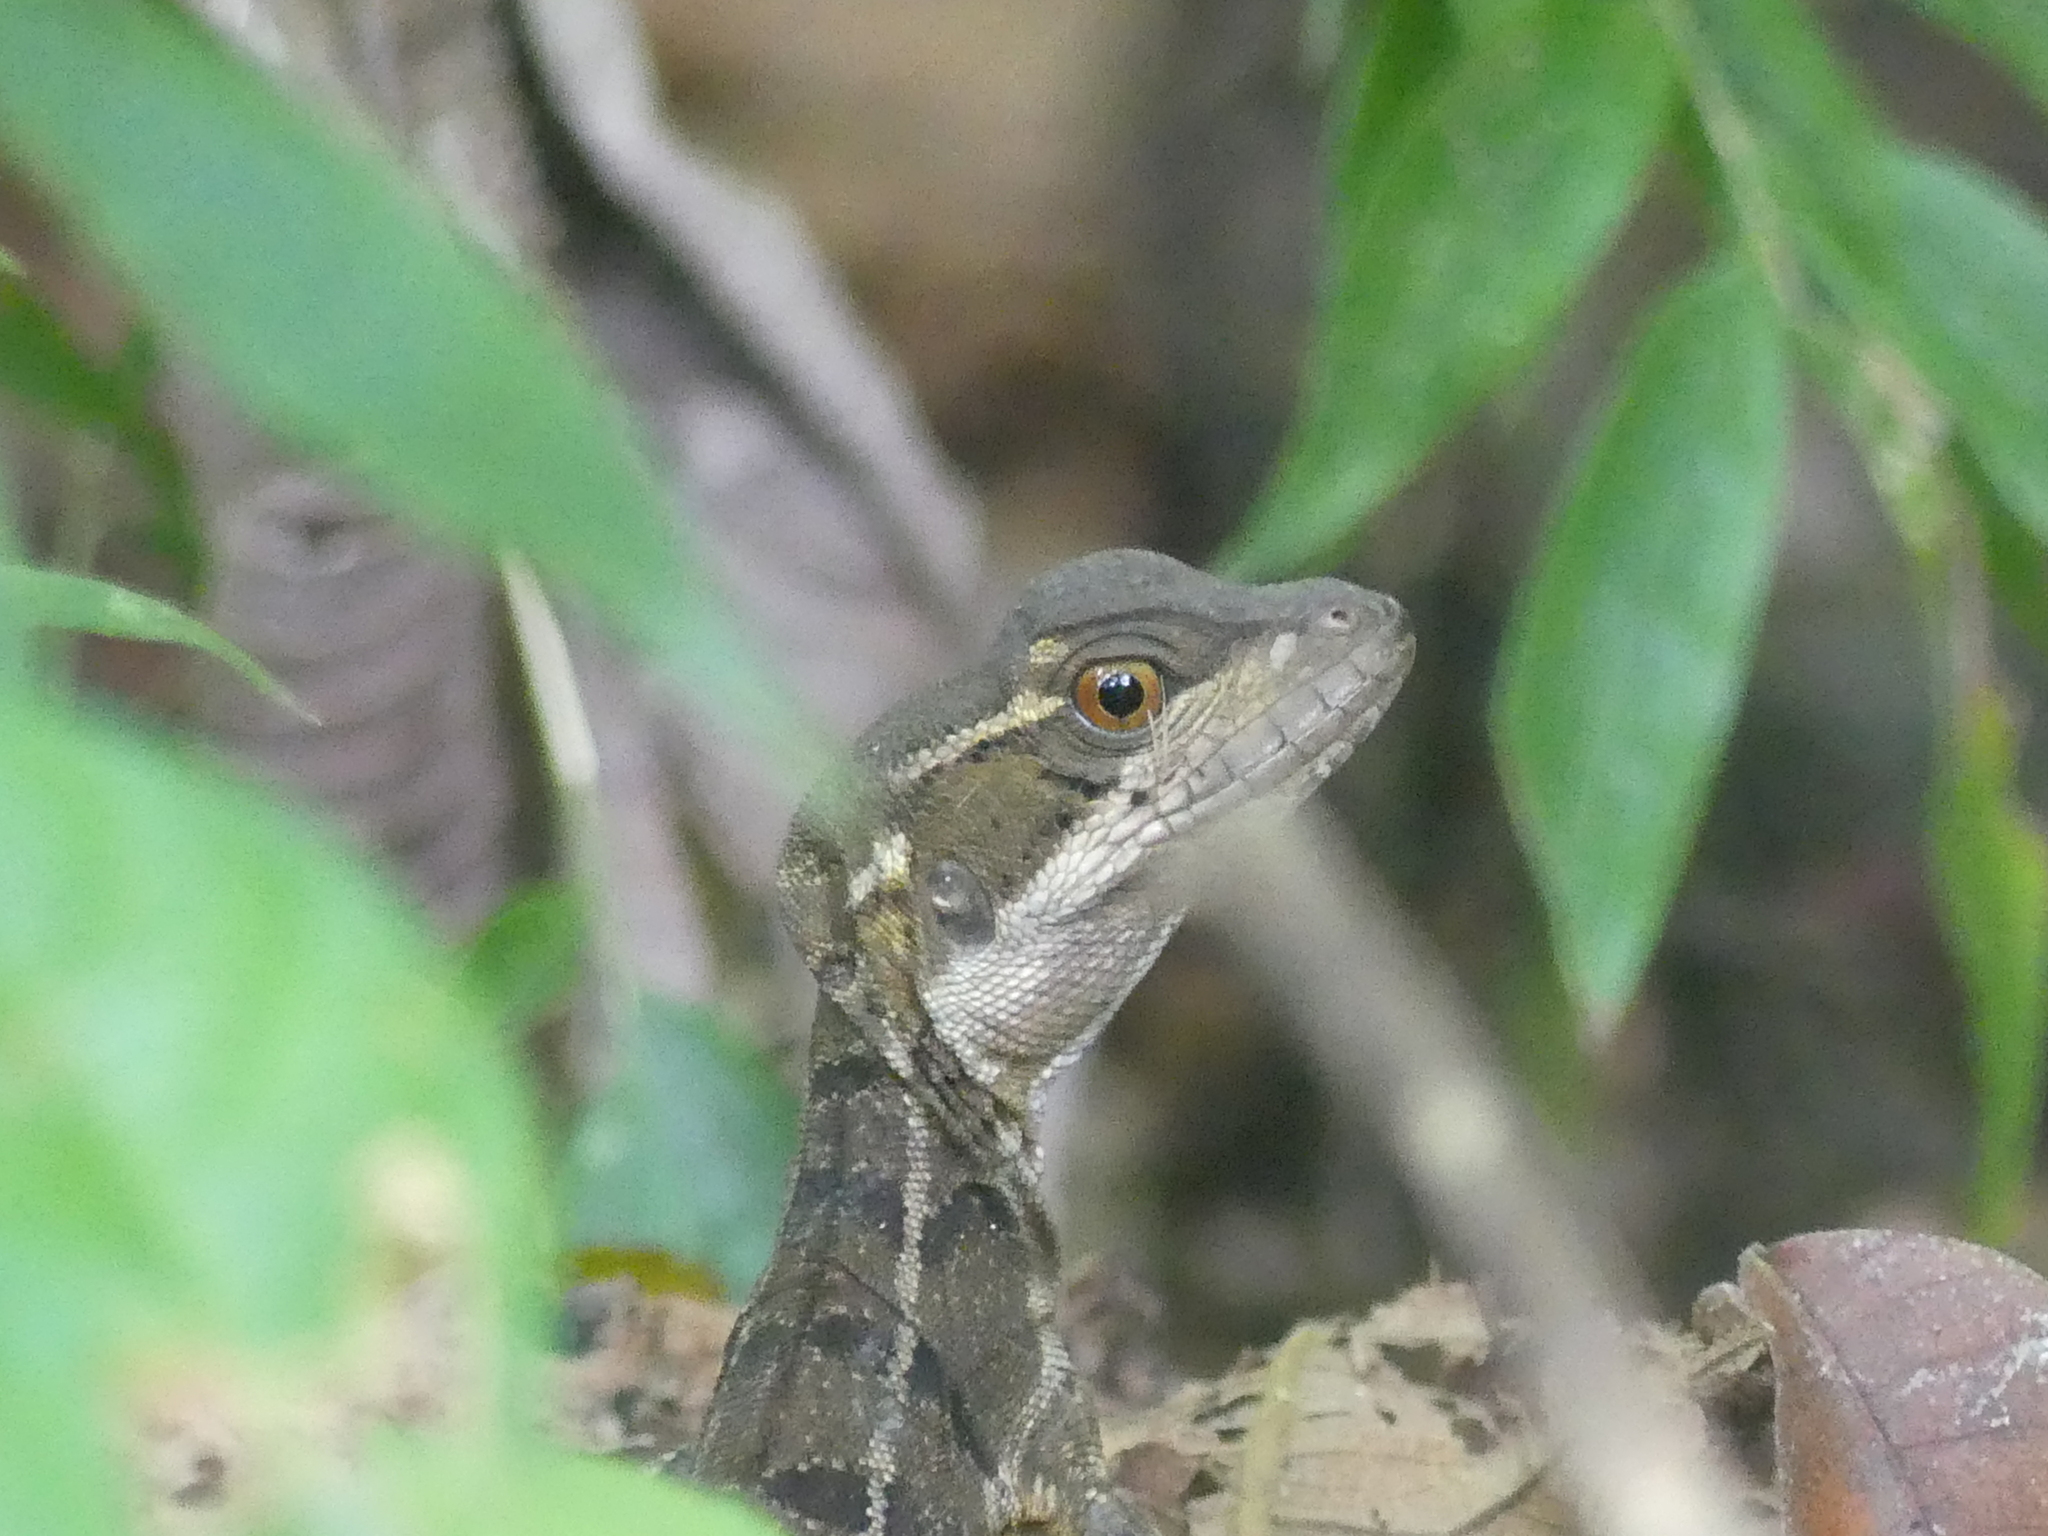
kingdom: Animalia
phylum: Chordata
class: Squamata
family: Corytophanidae
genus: Basiliscus
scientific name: Basiliscus basiliscus
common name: Common basilisk
